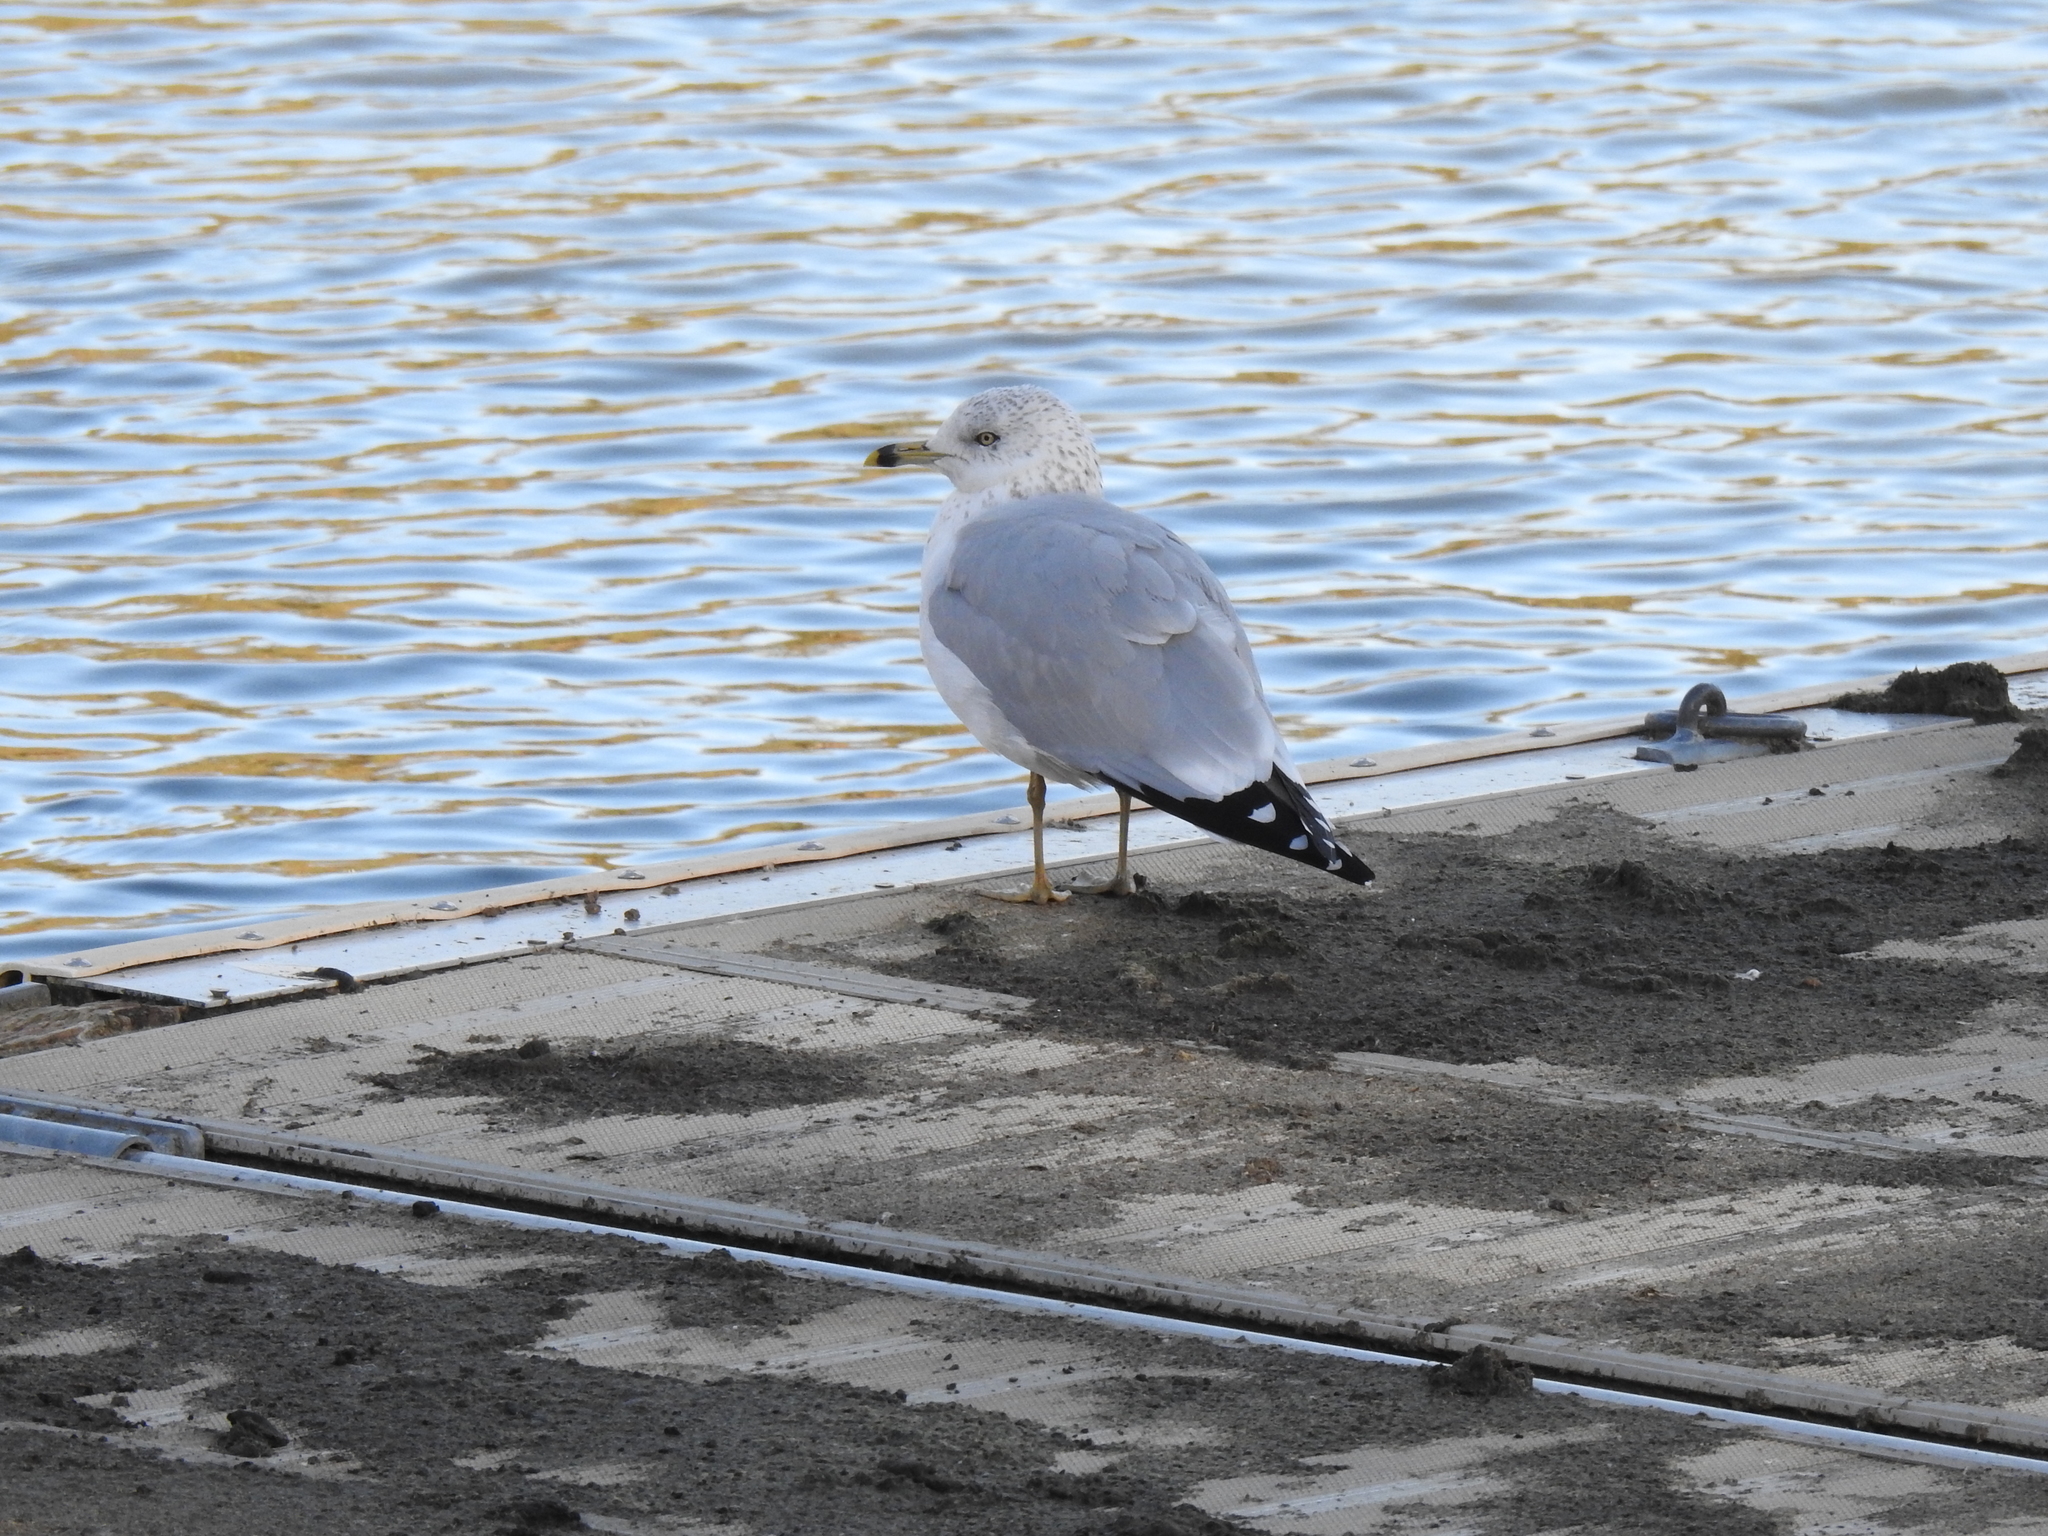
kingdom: Animalia
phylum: Chordata
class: Aves
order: Charadriiformes
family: Laridae
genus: Larus
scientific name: Larus delawarensis
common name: Ring-billed gull
